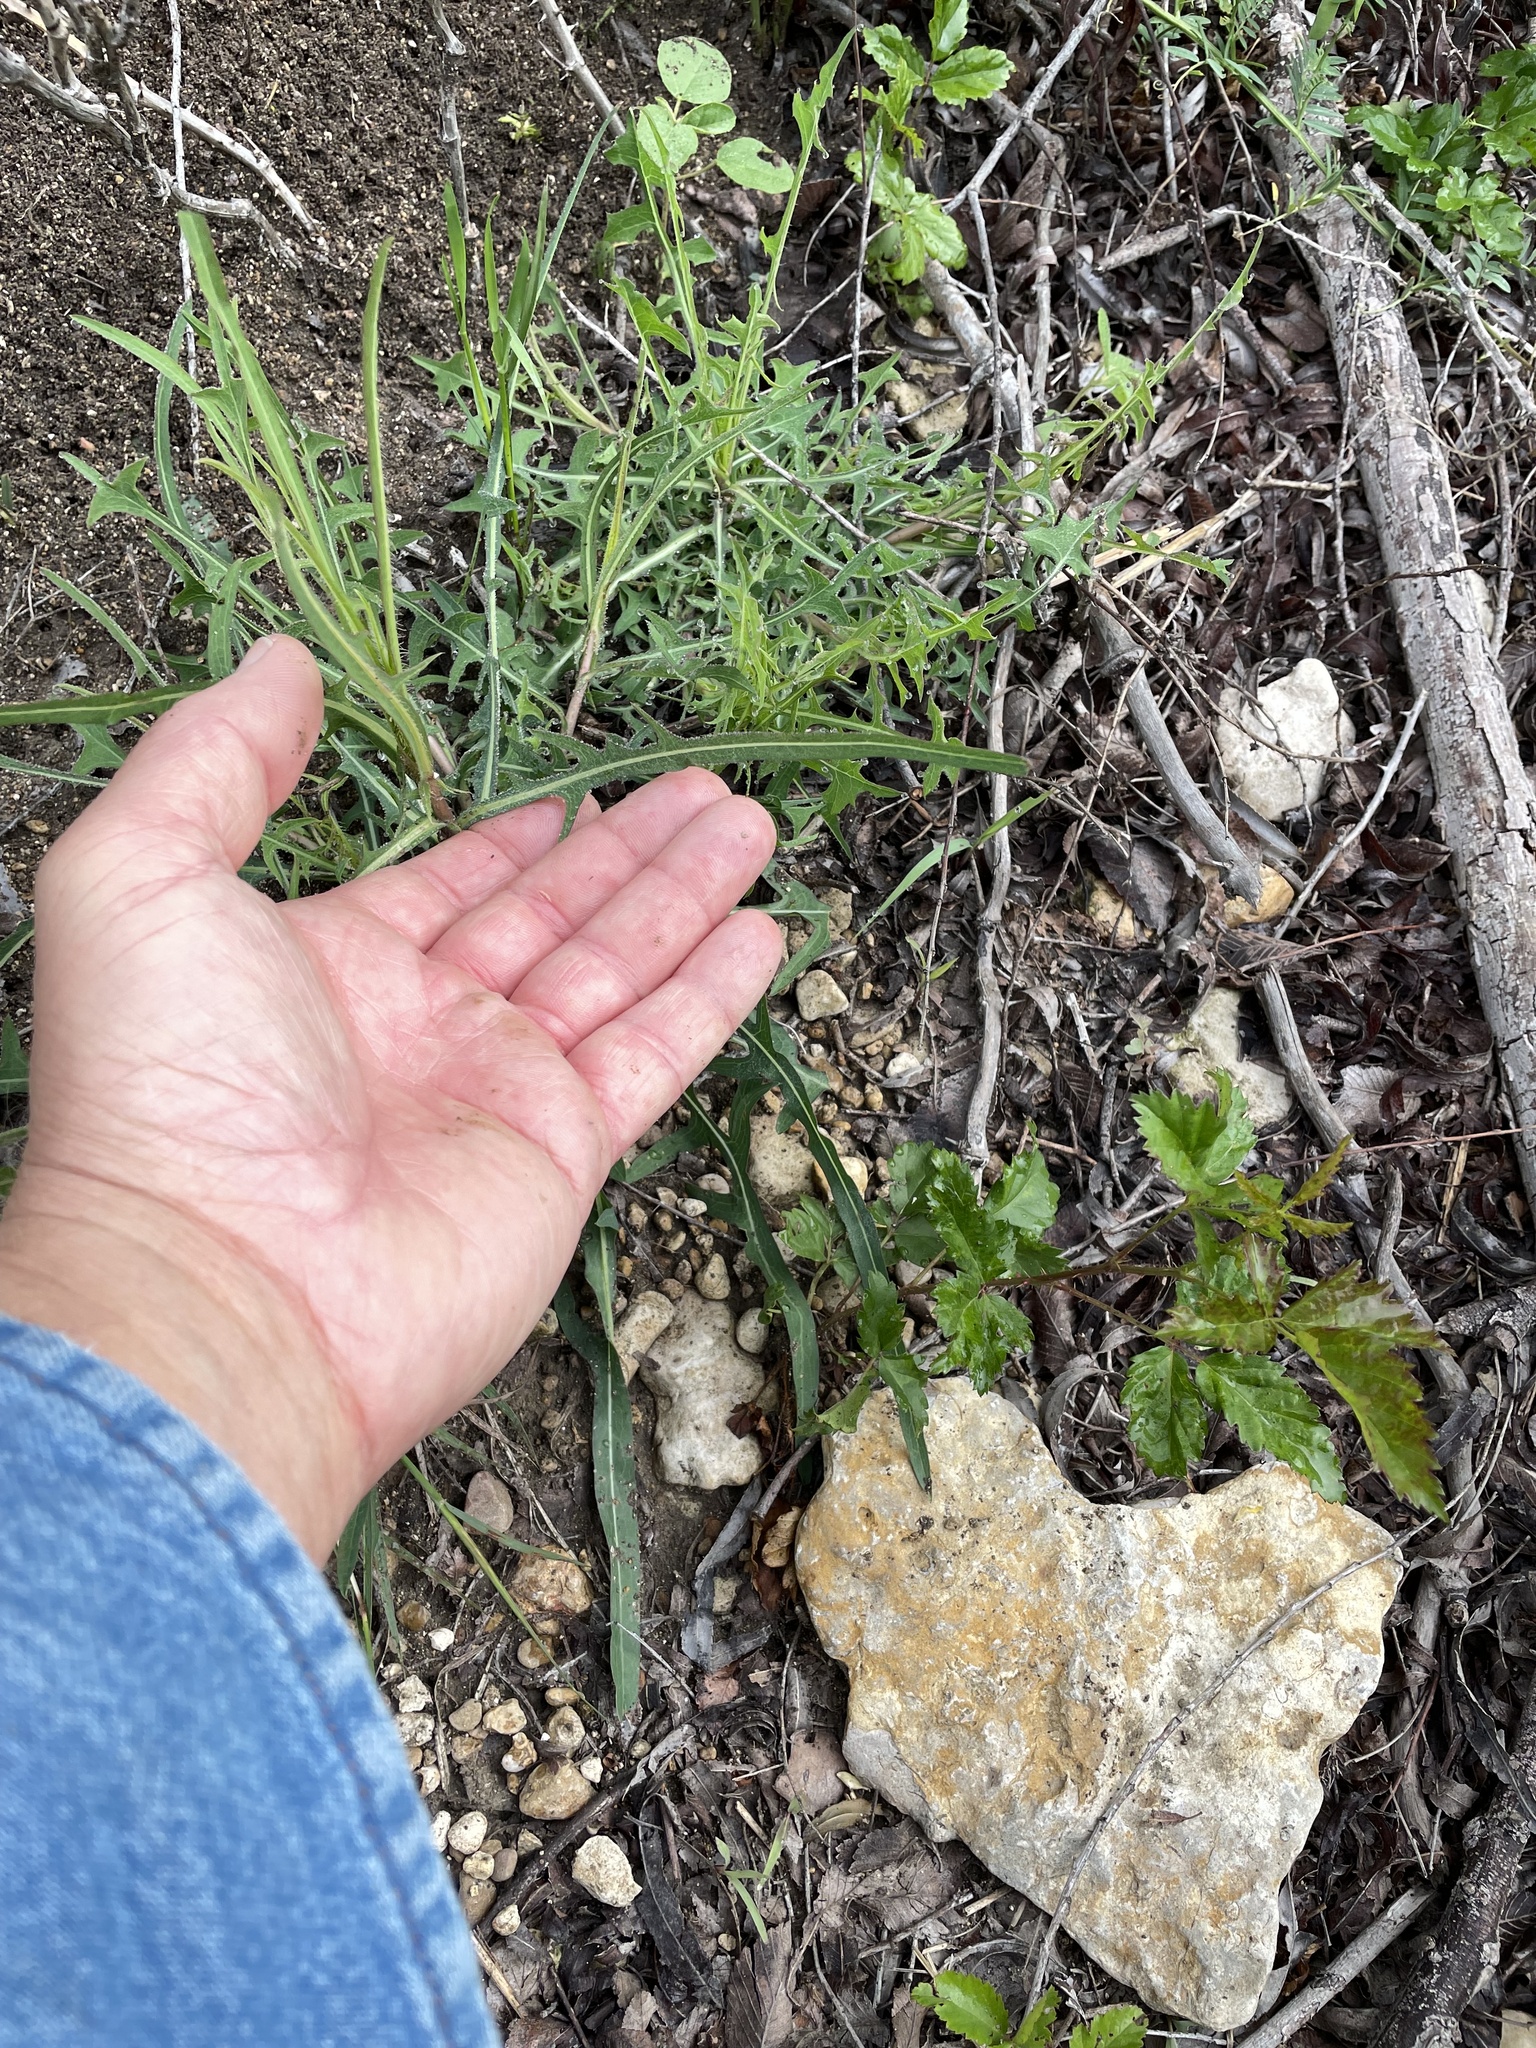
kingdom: Plantae
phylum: Tracheophyta
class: Magnoliopsida
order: Asterales
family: Asteraceae
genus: Lactuca
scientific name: Lactuca saligna
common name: Wild lettuce
